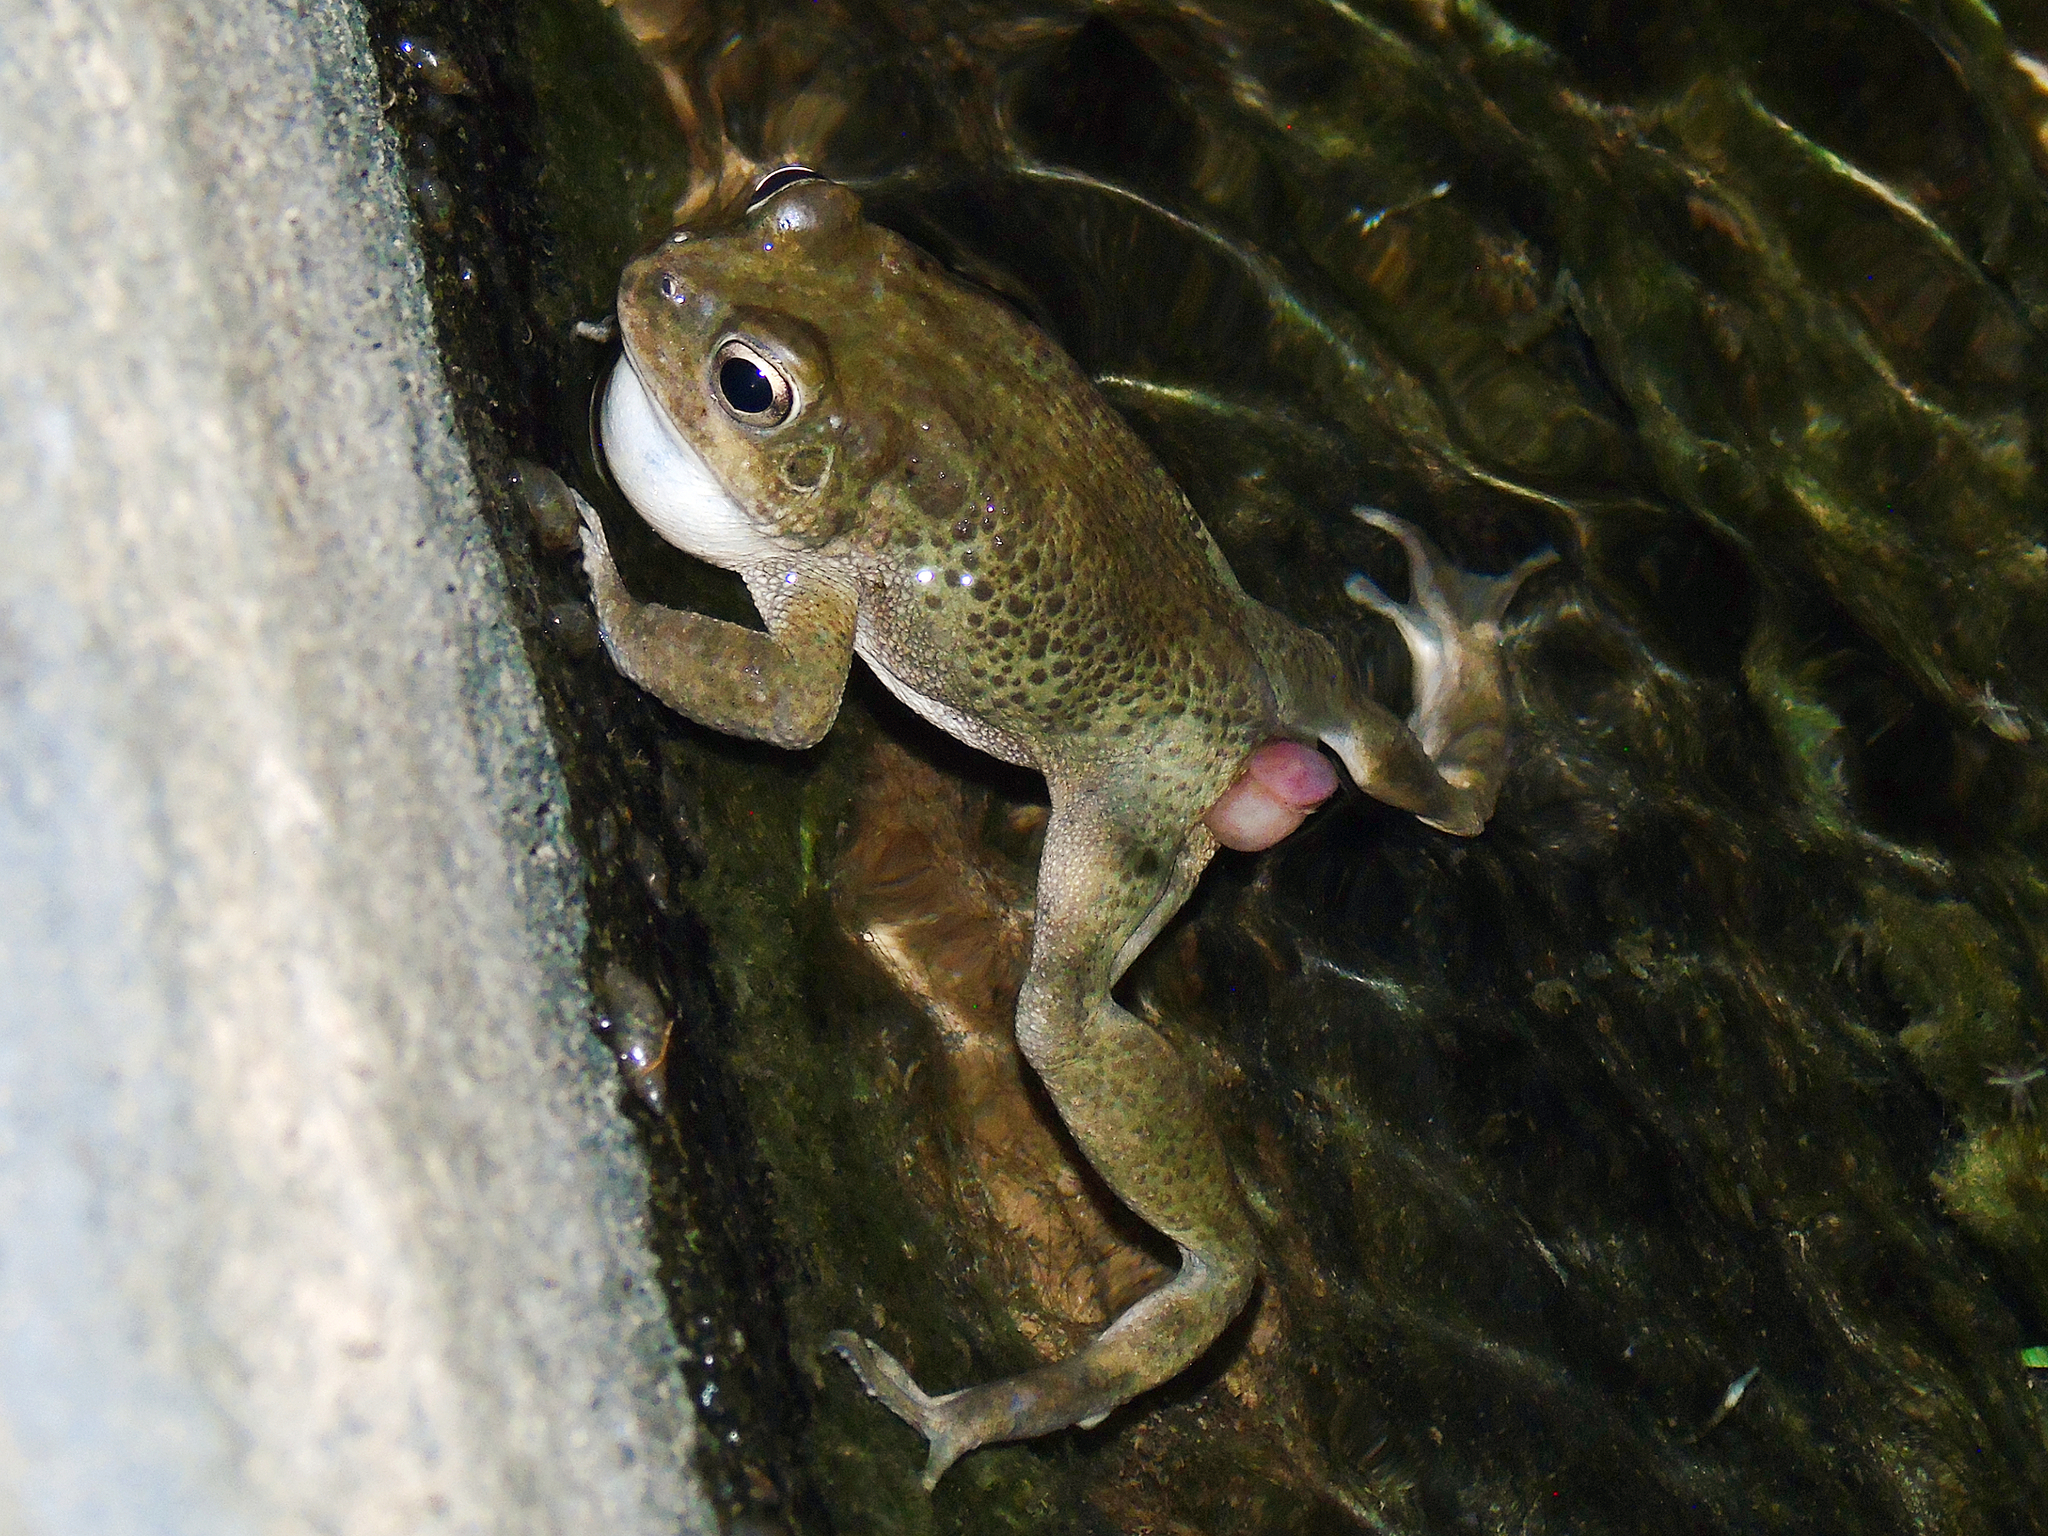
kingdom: Animalia
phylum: Chordata
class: Amphibia
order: Anura
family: Bufonidae
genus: Sclerophrys
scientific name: Sclerophrys arabica
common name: Arabian toad
